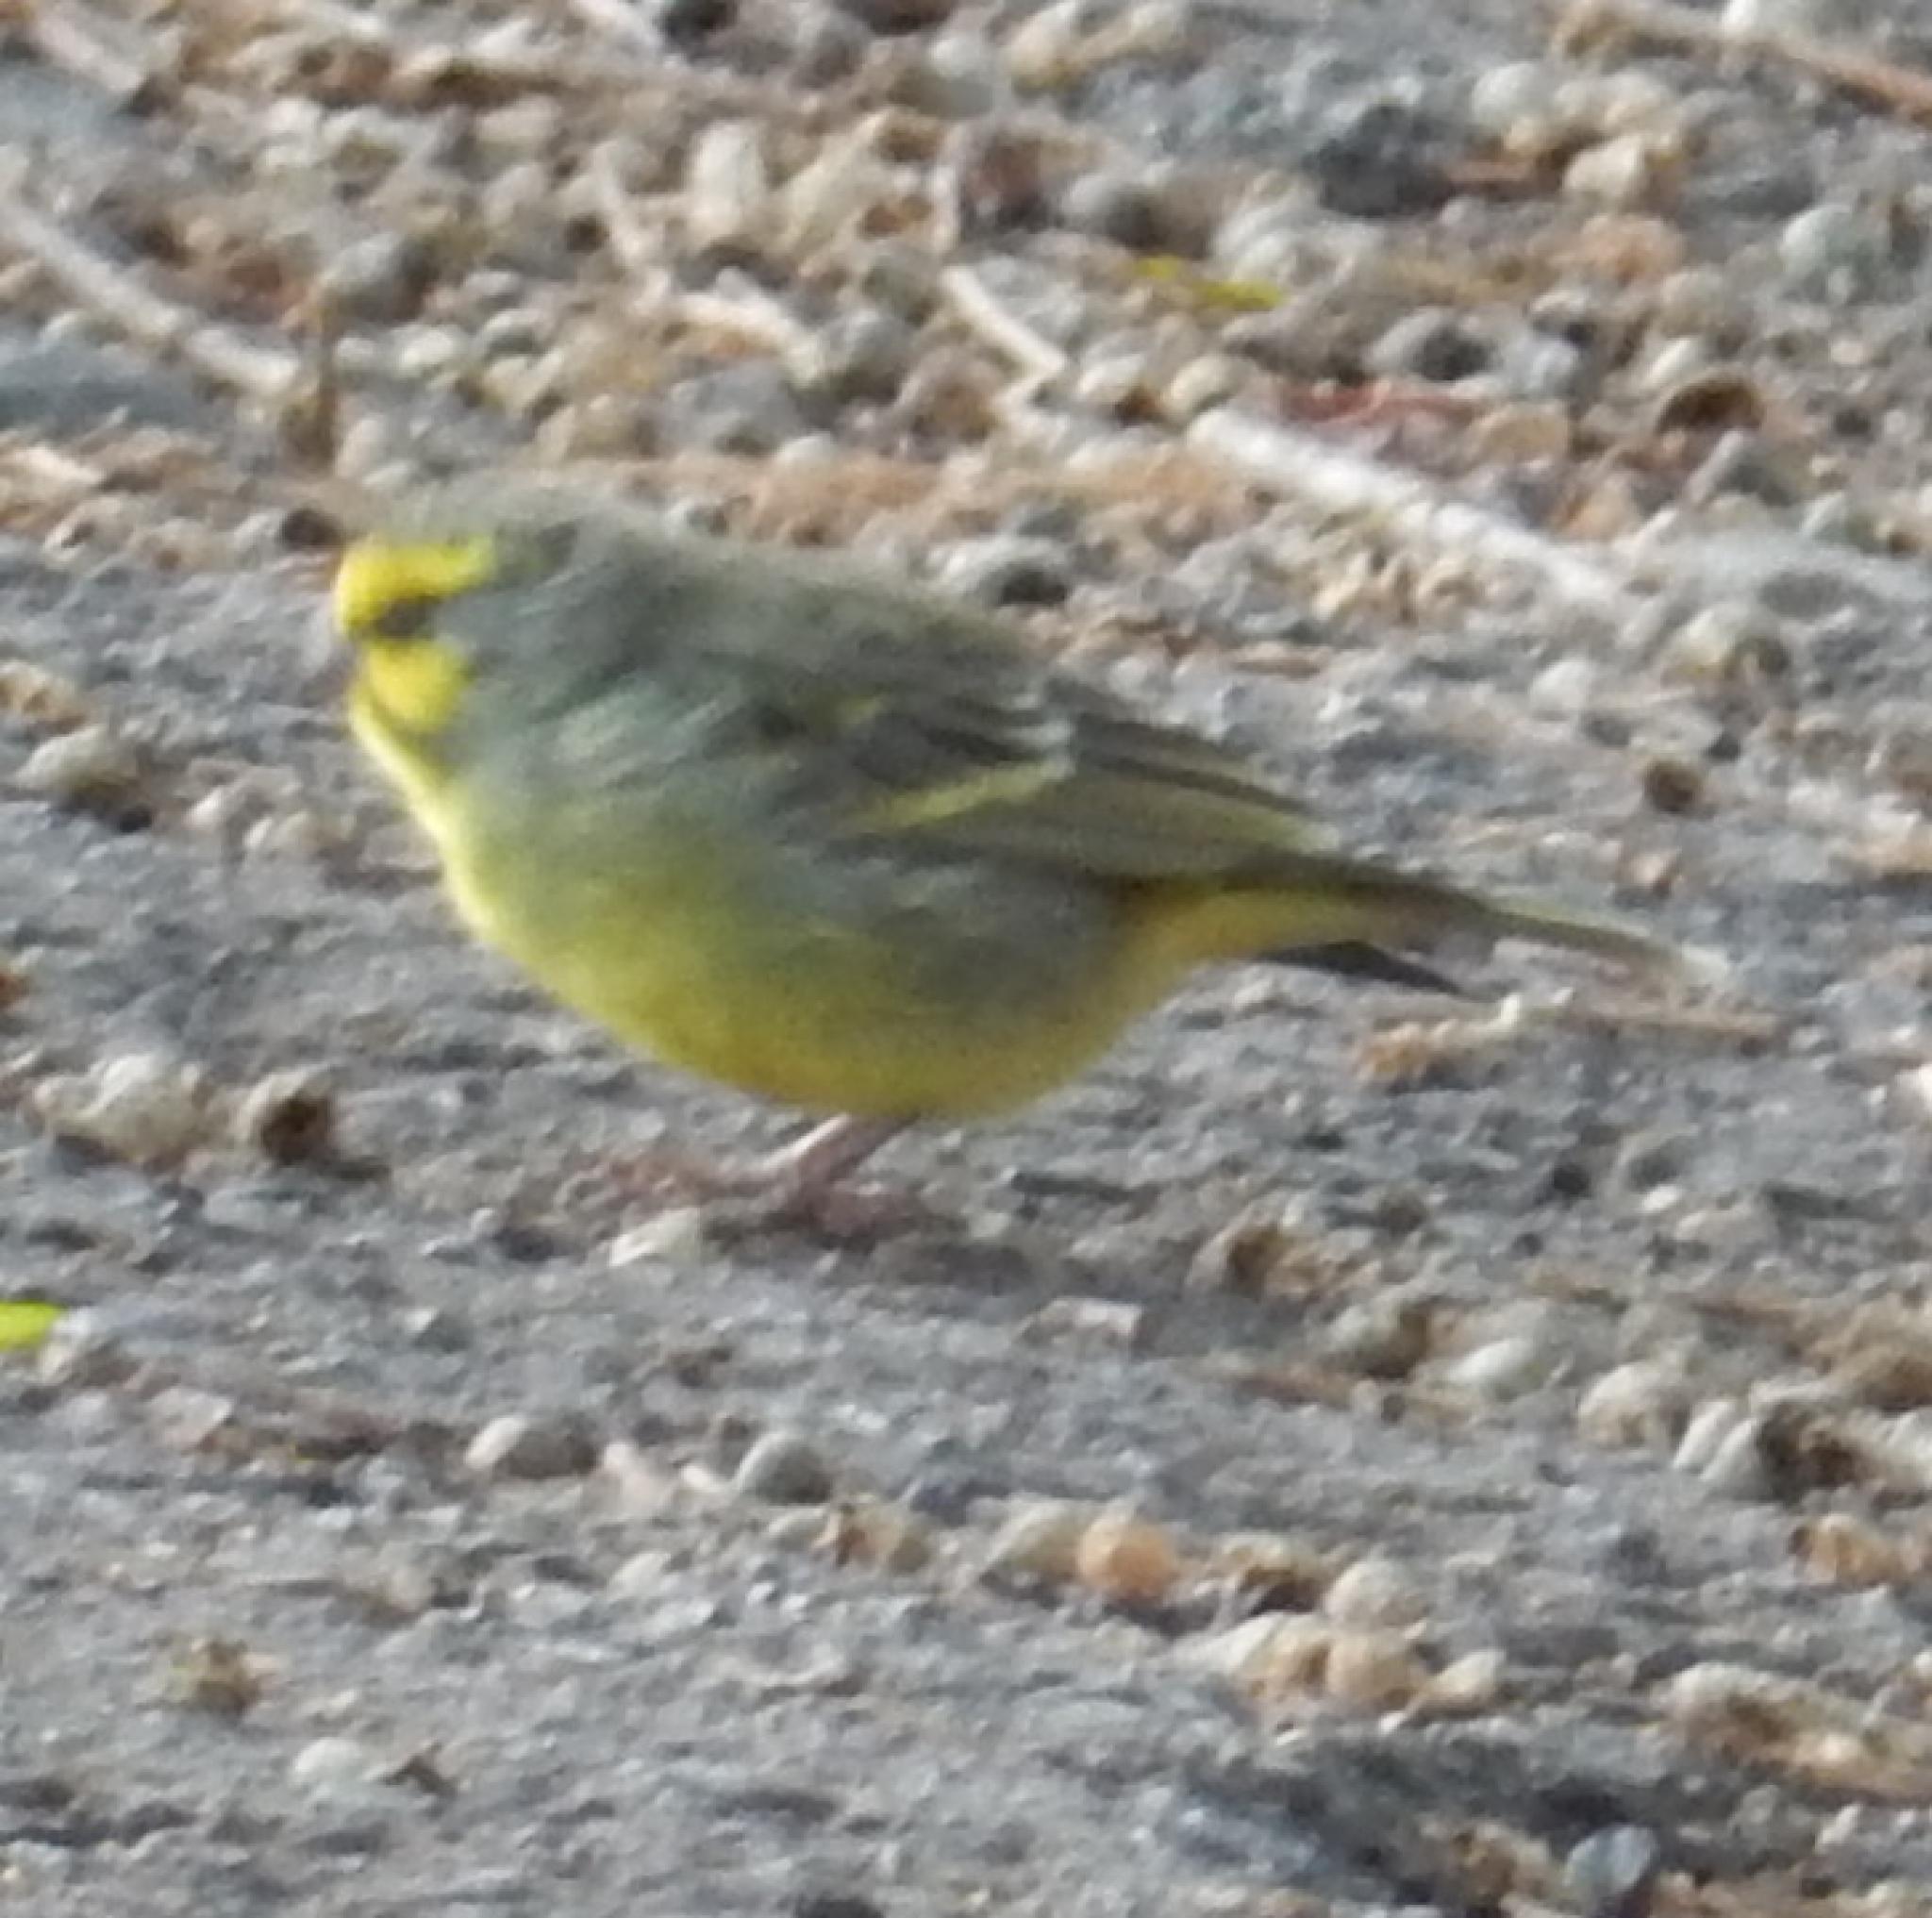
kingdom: Animalia
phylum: Chordata
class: Aves
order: Passeriformes
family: Fringillidae
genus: Crithagra
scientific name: Crithagra mozambica
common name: Yellow-fronted canary
